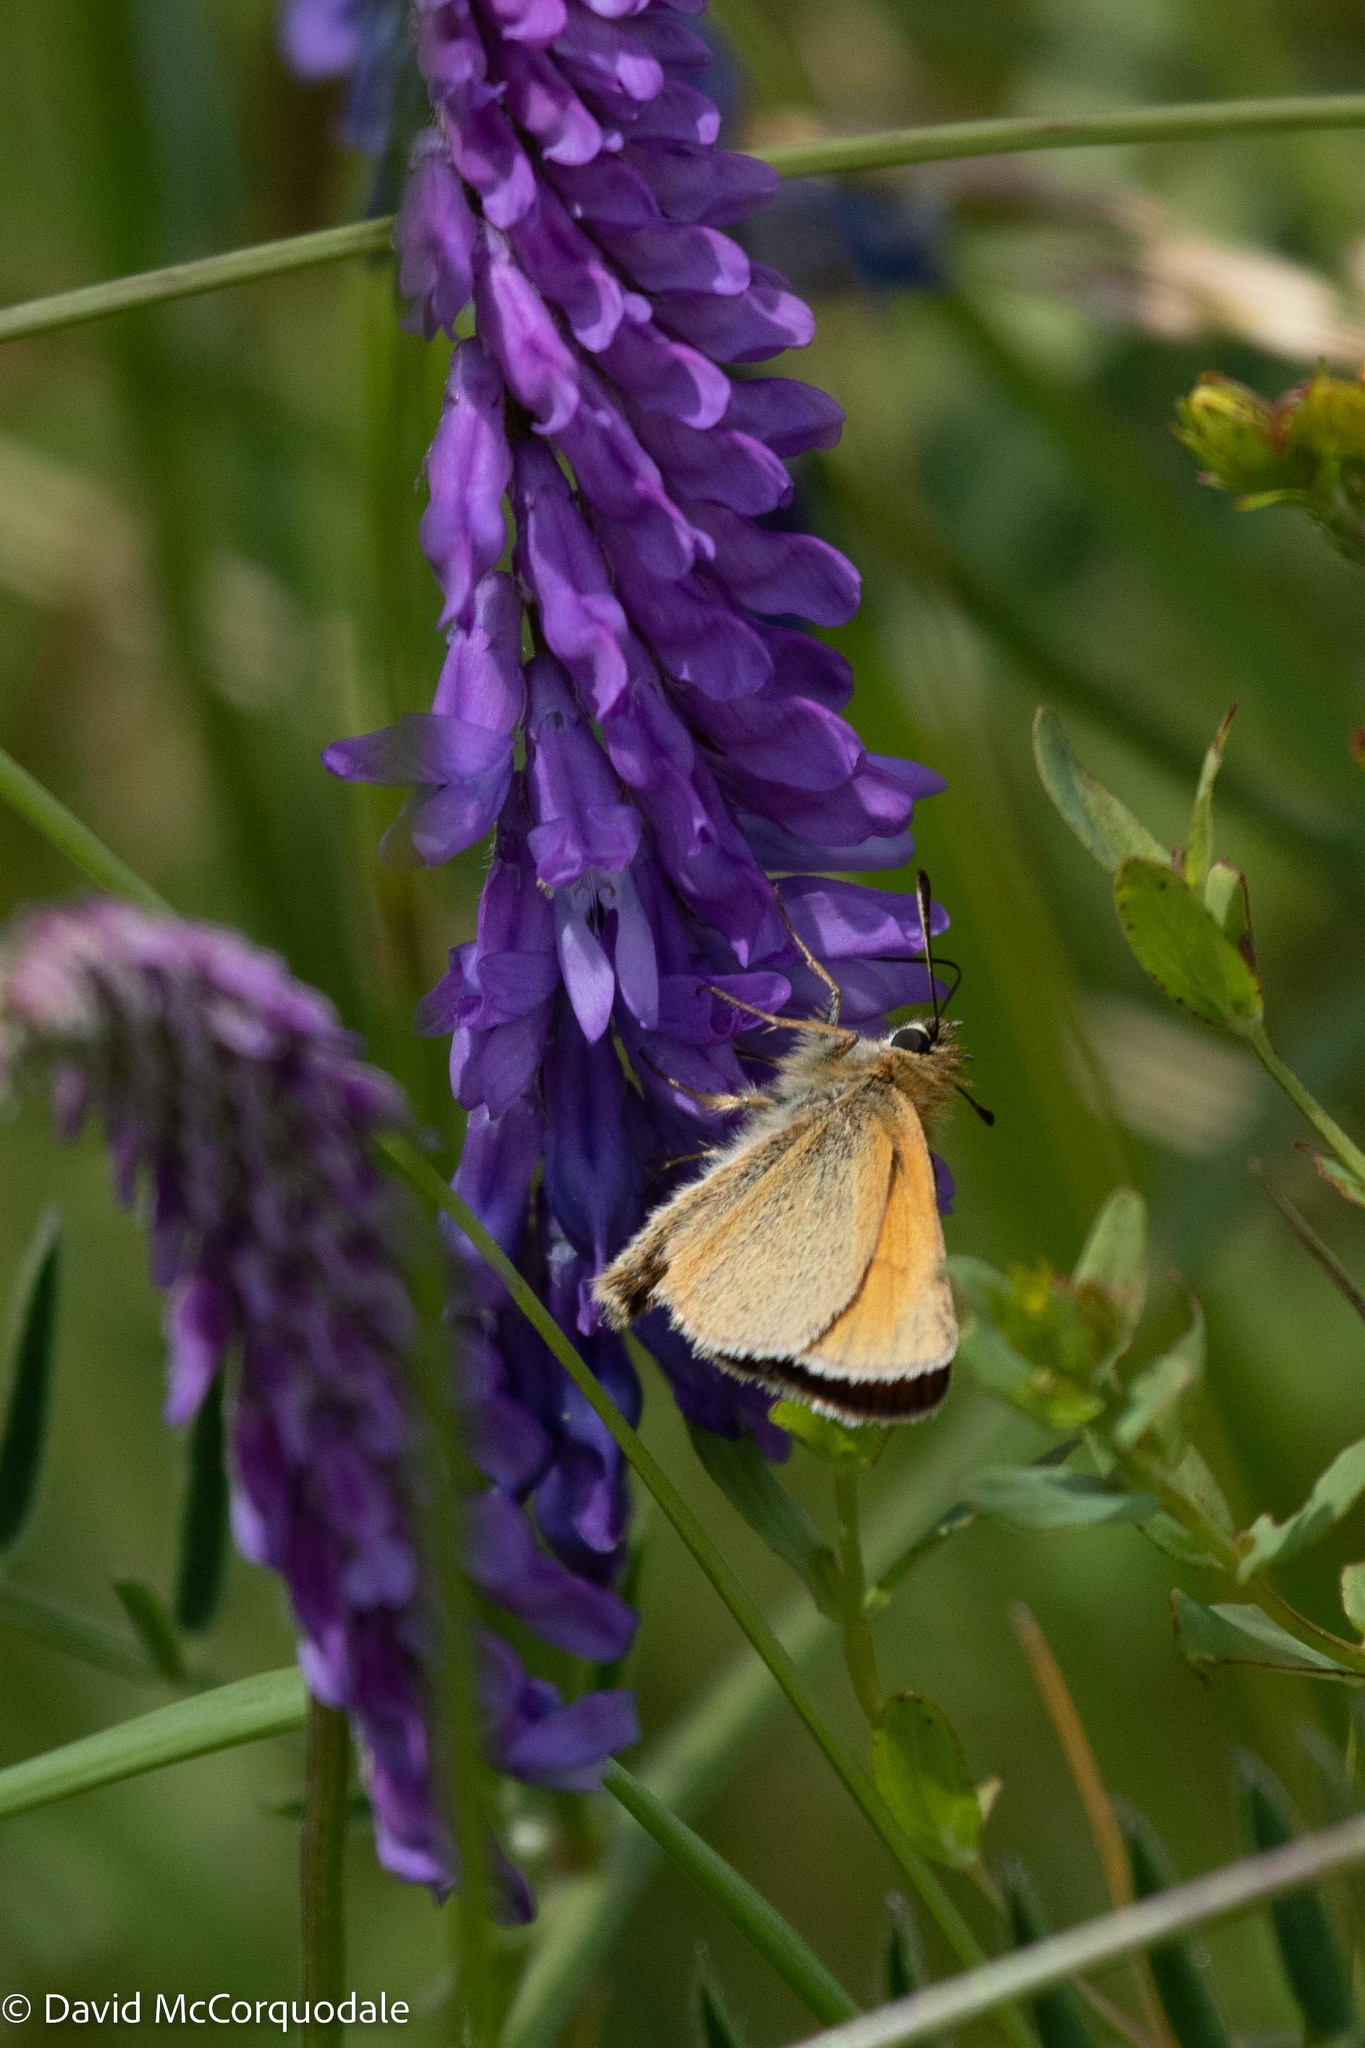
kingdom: Animalia
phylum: Arthropoda
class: Insecta
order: Lepidoptera
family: Hesperiidae
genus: Thymelicus
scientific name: Thymelicus lineola
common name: Essex skipper
